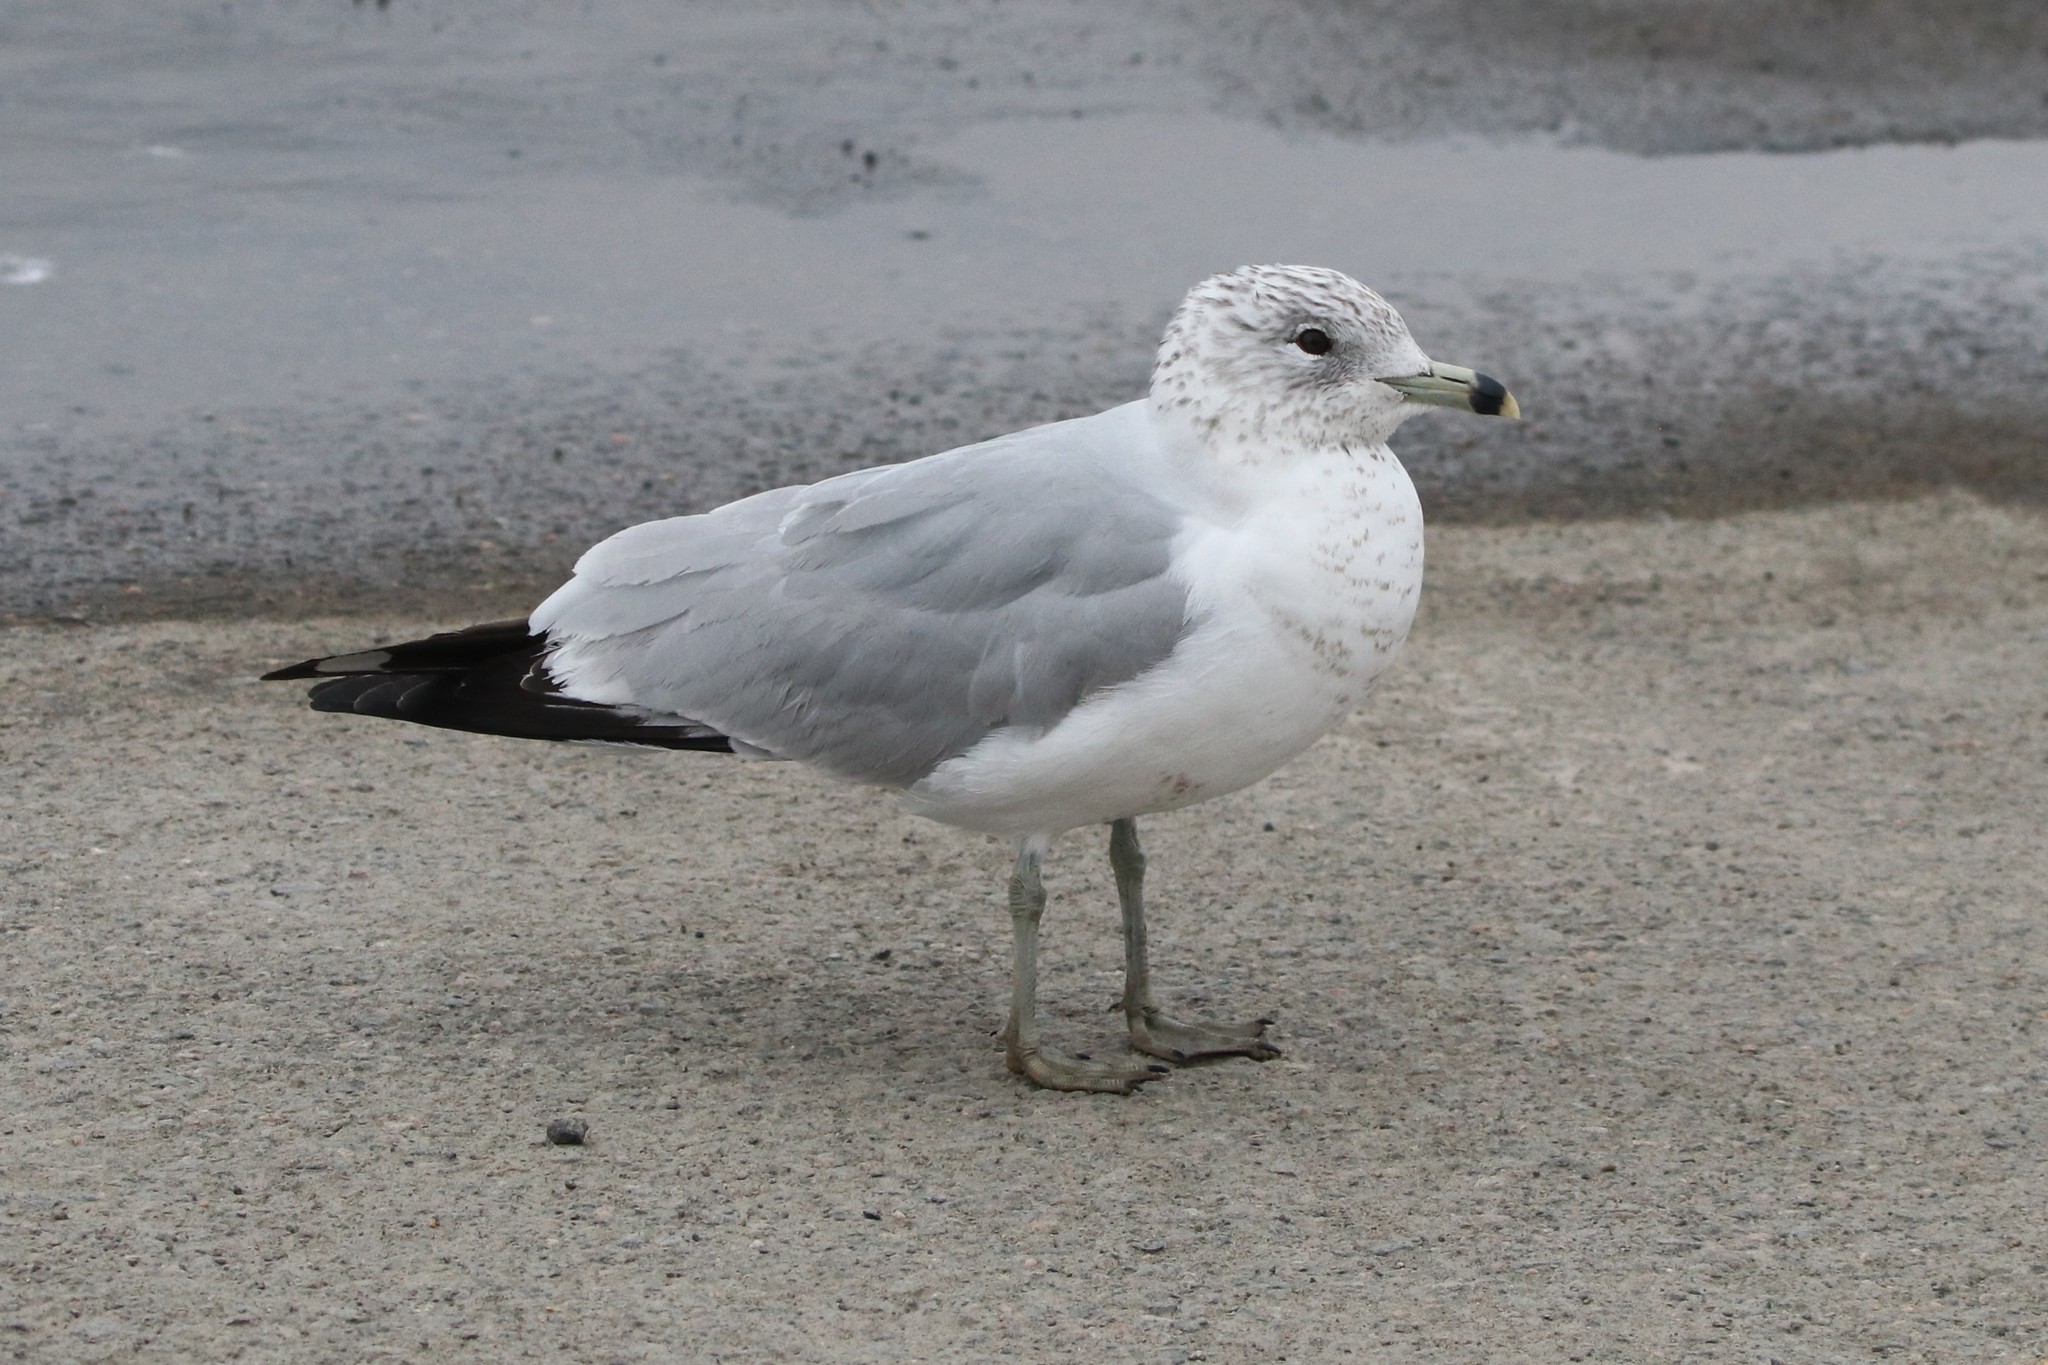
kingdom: Animalia
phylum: Chordata
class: Aves
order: Charadriiformes
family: Laridae
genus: Larus
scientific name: Larus delawarensis
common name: Ring-billed gull
